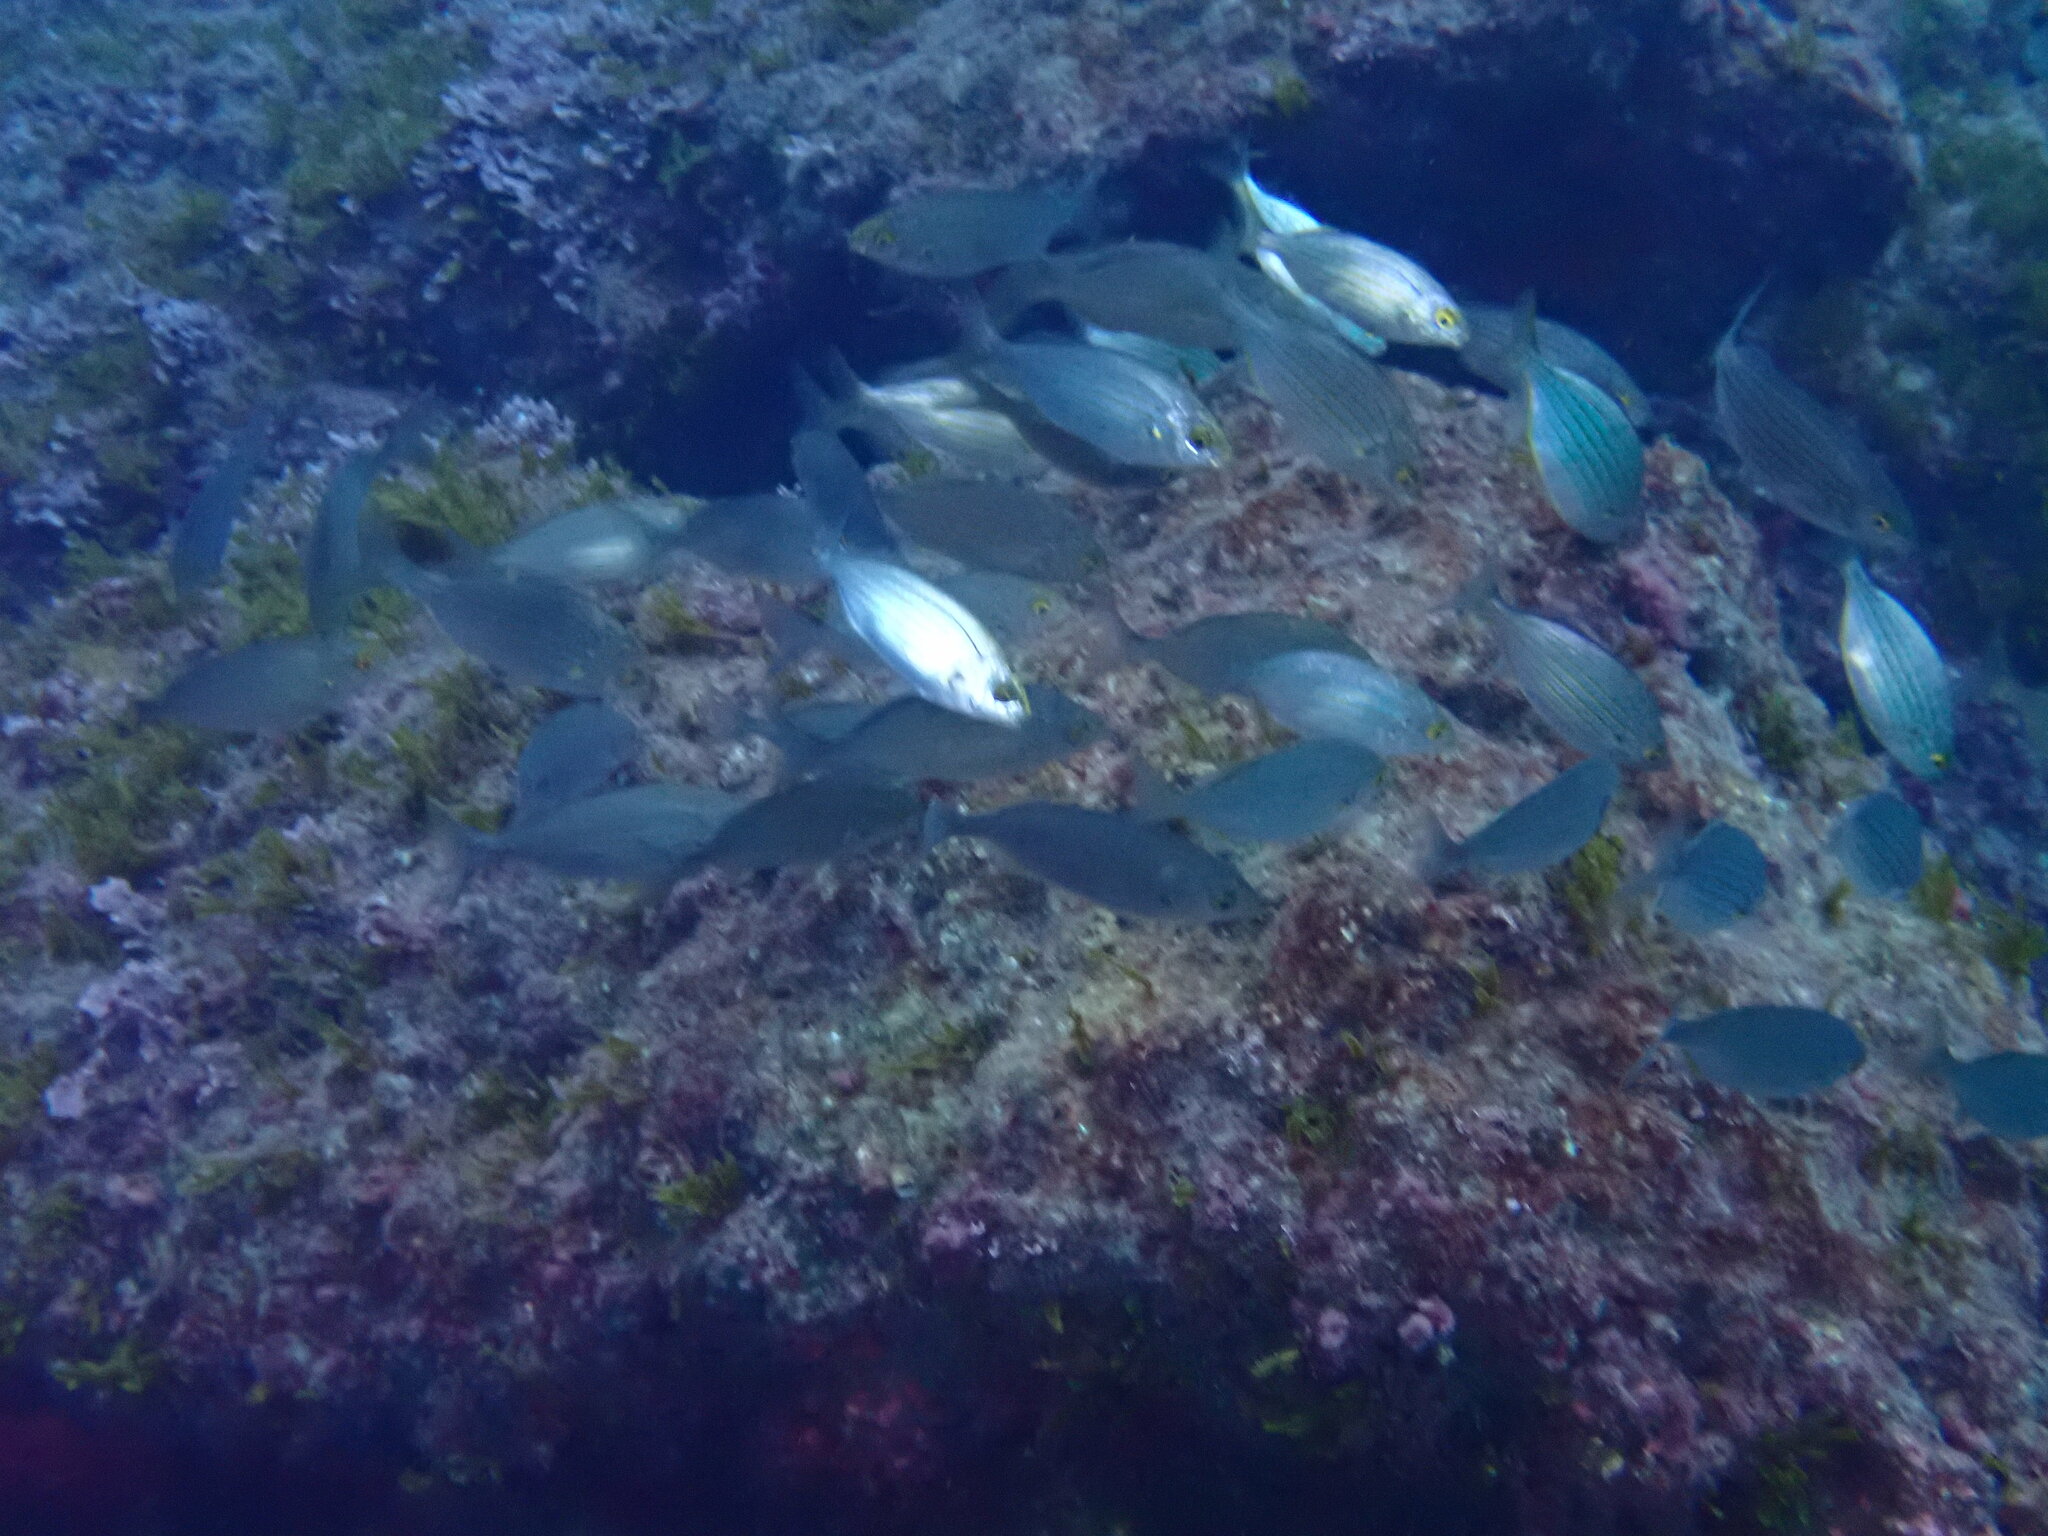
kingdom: Animalia
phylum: Chordata
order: Perciformes
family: Sparidae
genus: Sarpa
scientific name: Sarpa salpa
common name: Salema
